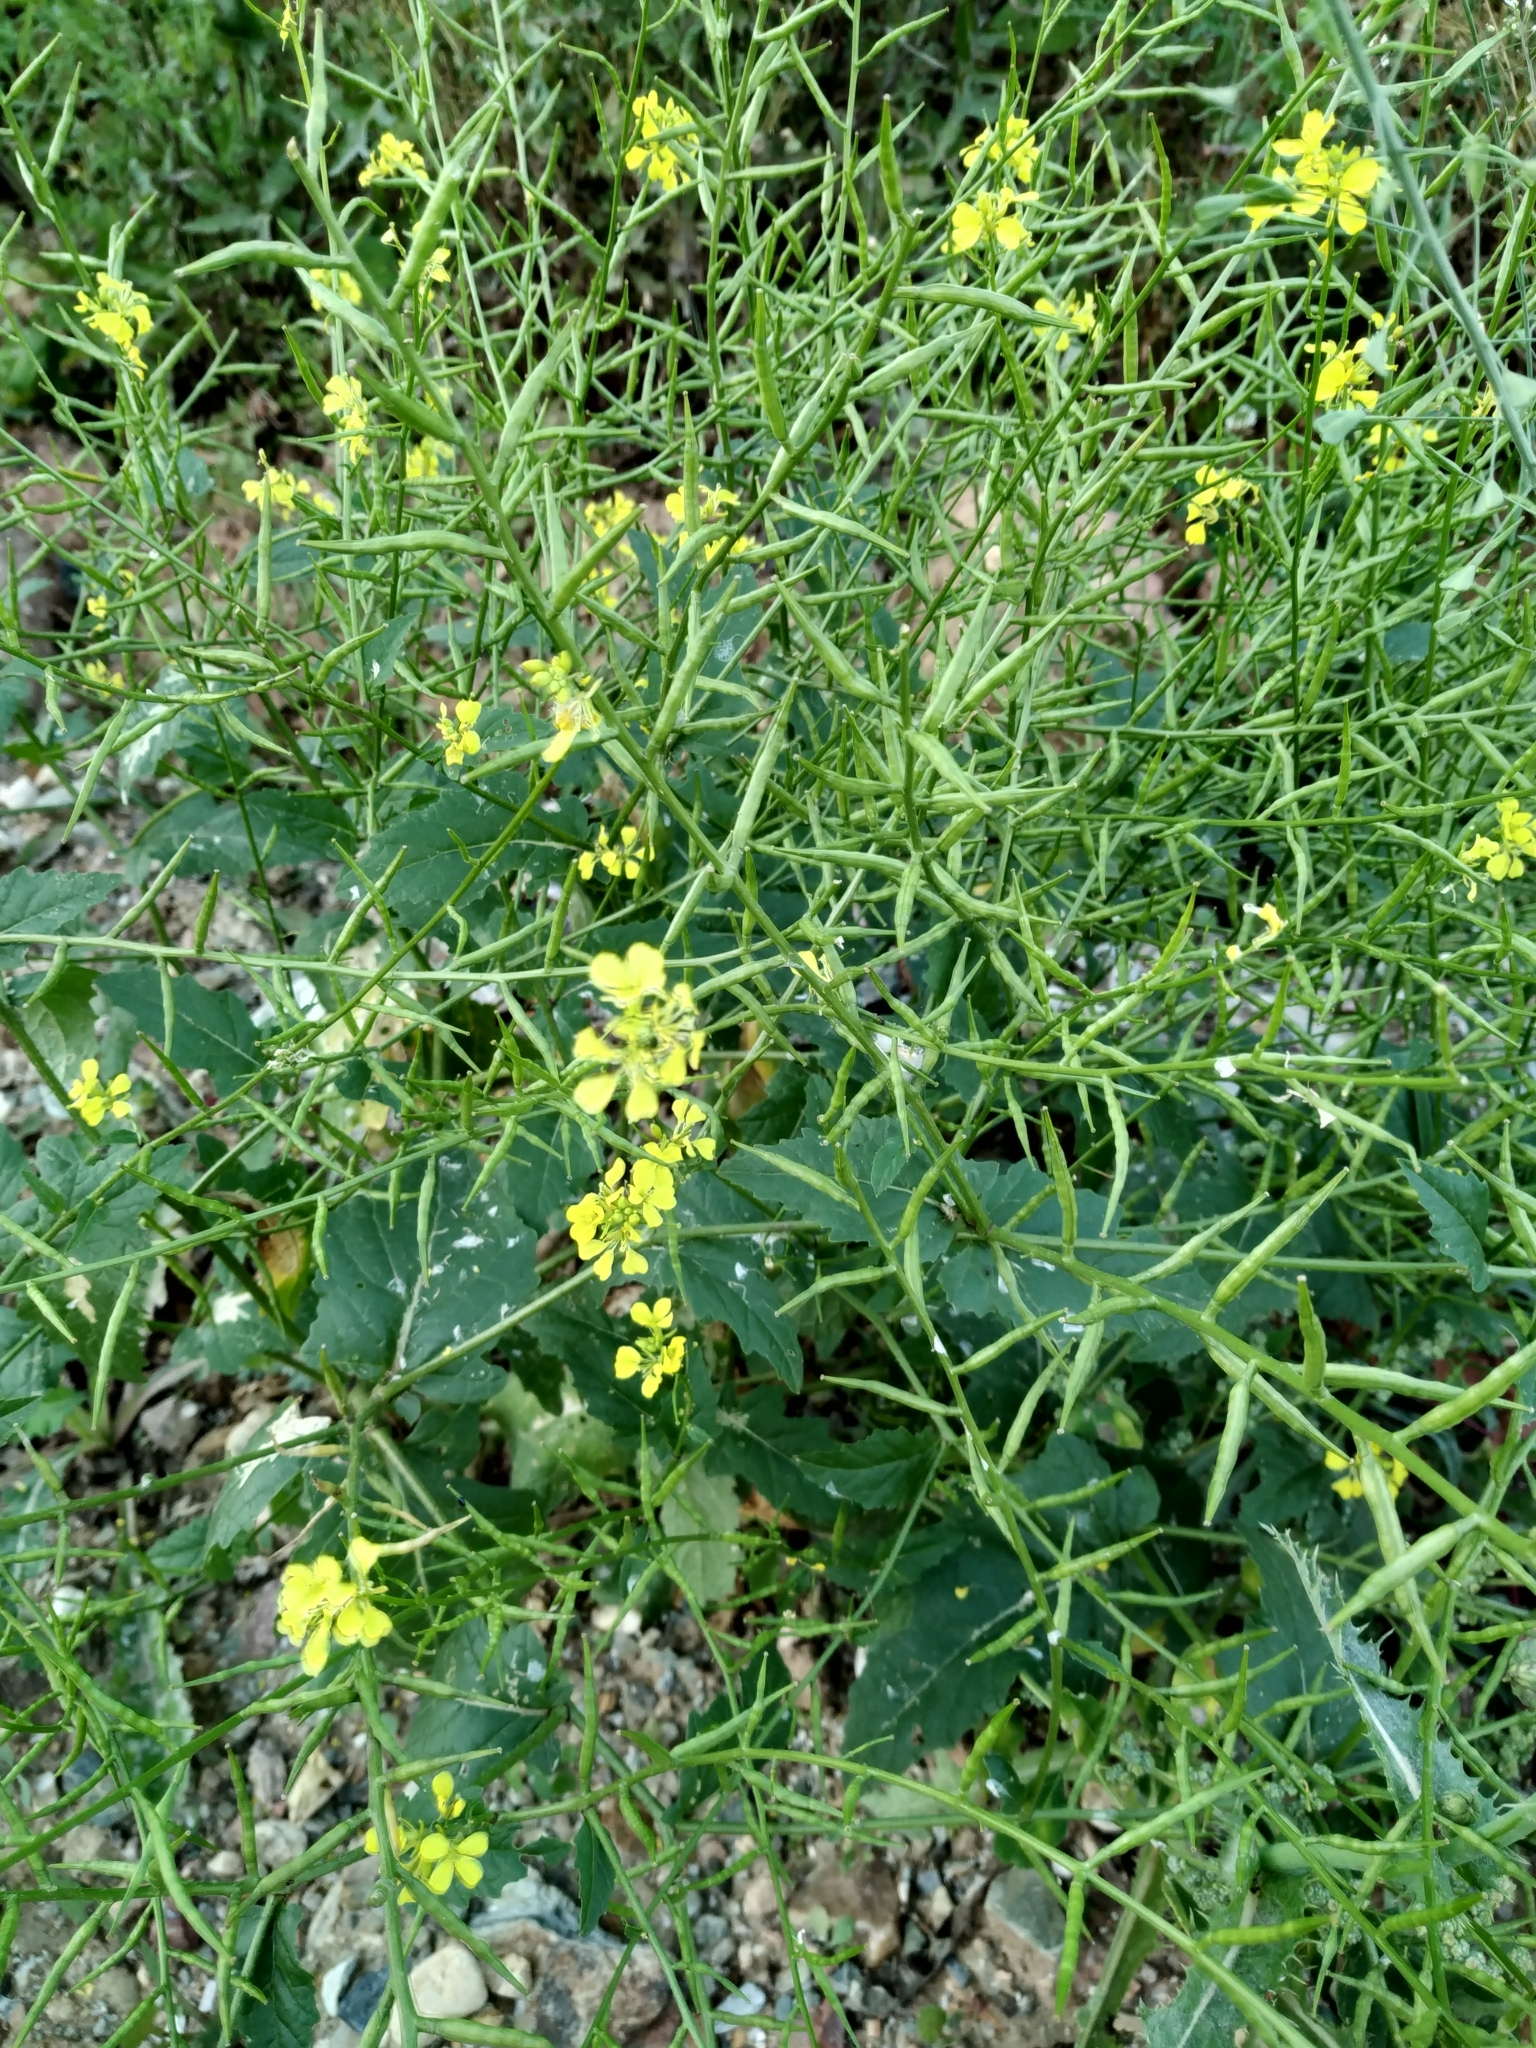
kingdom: Plantae
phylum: Tracheophyta
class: Magnoliopsida
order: Brassicales
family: Brassicaceae
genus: Sinapis
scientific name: Sinapis arvensis
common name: Charlock
